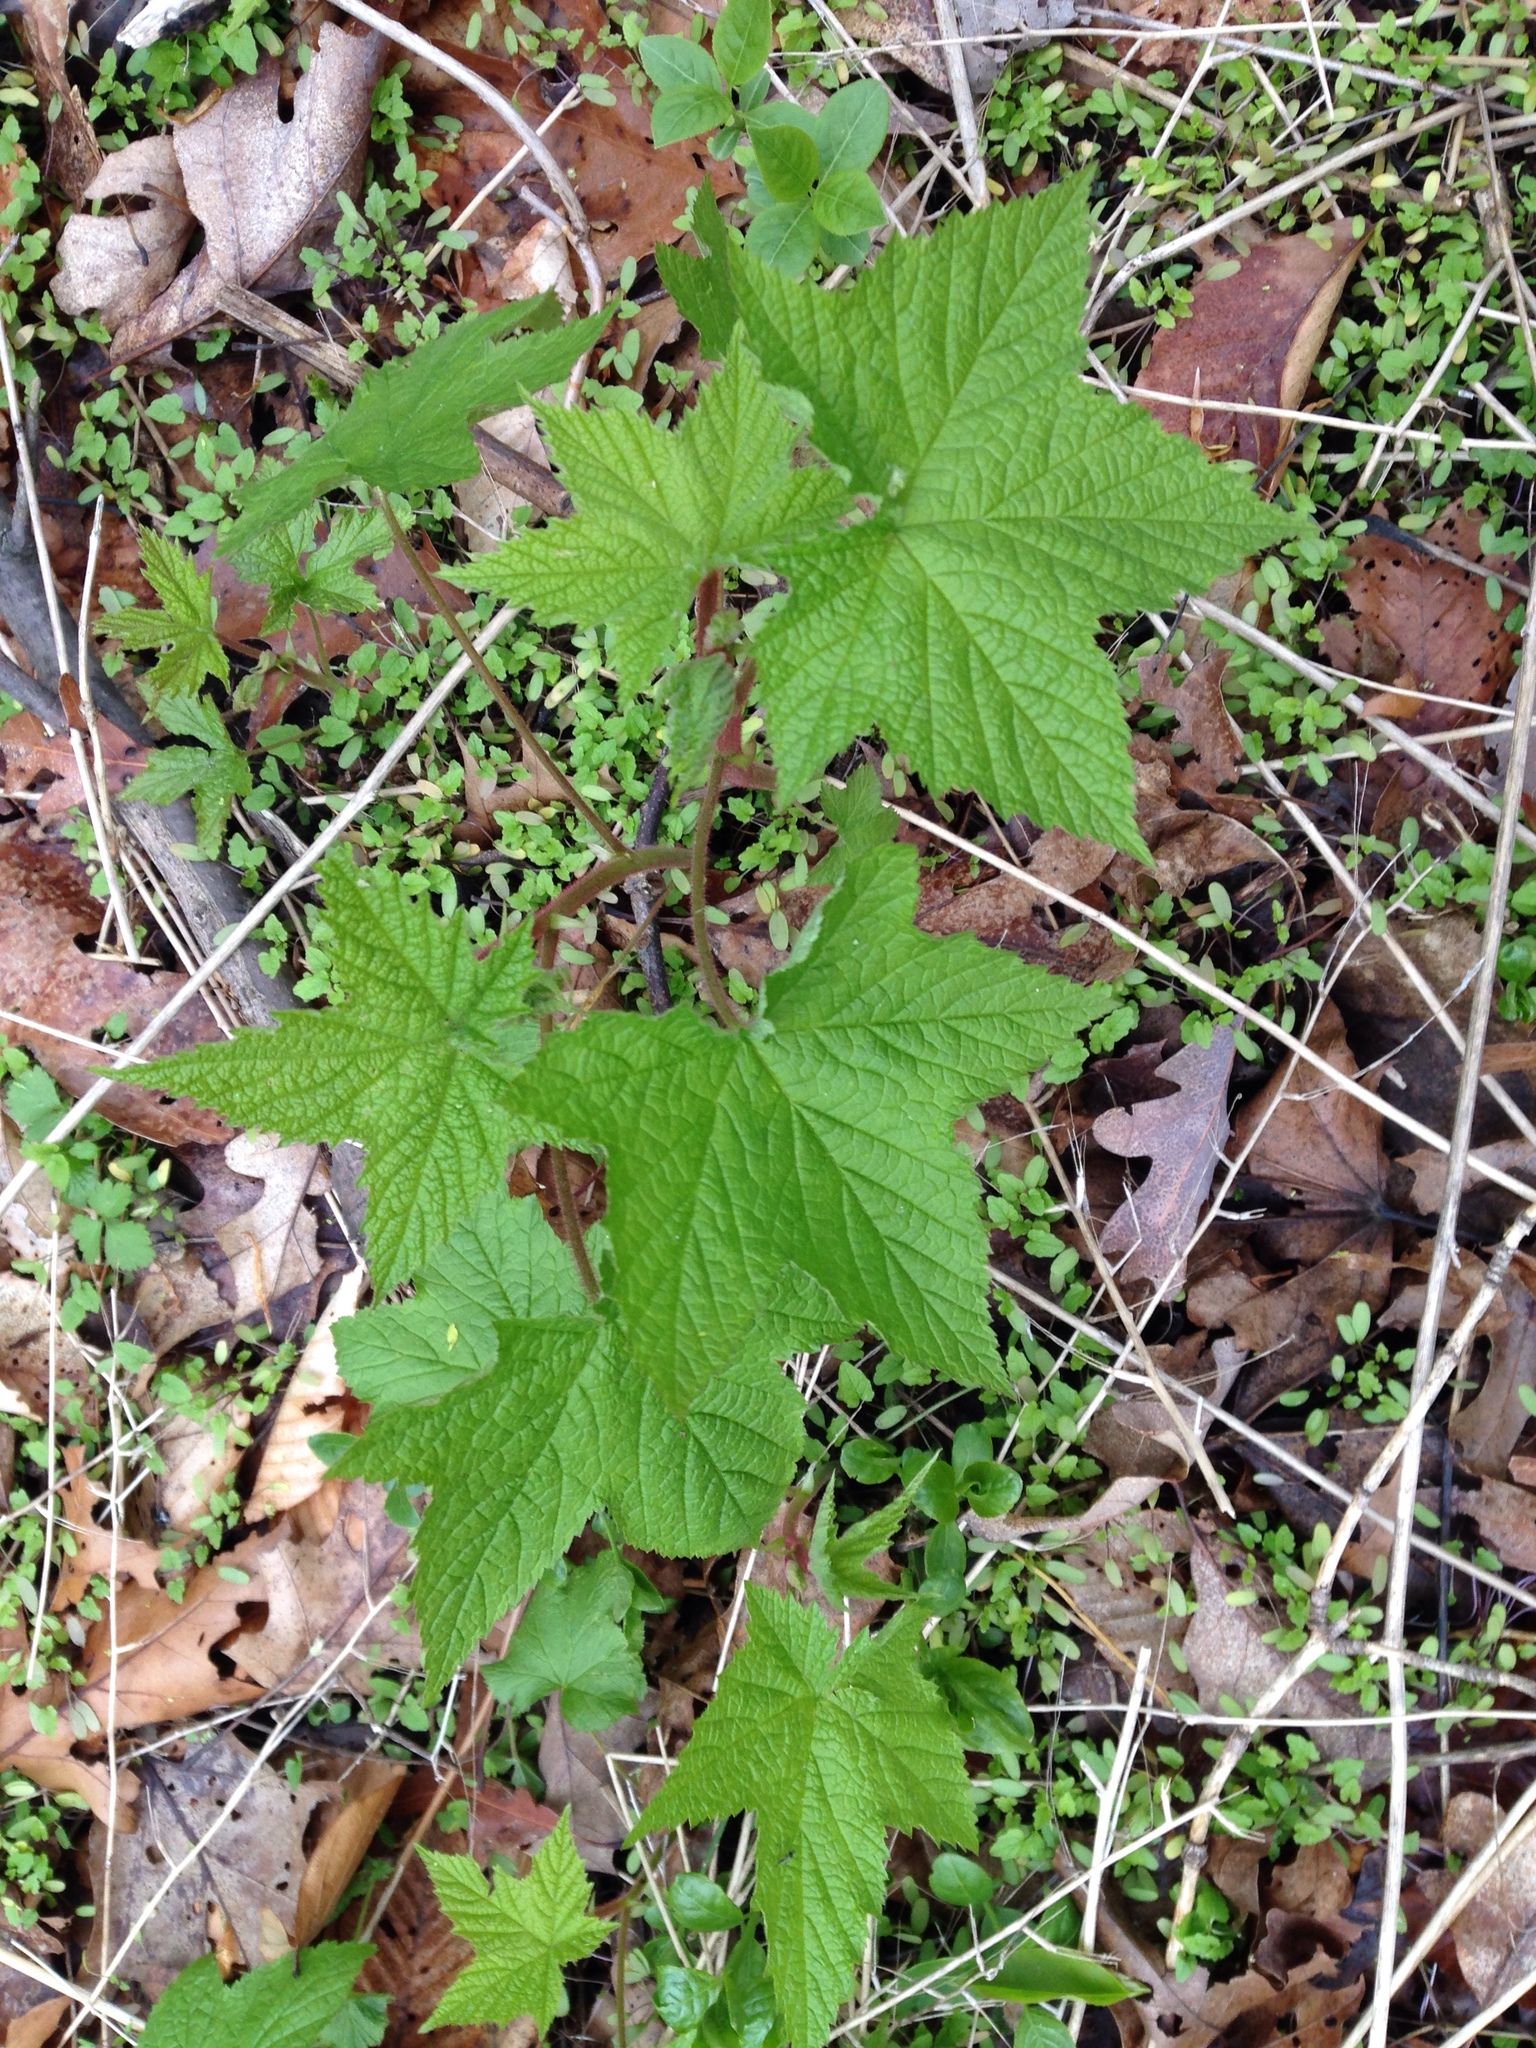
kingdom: Plantae
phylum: Tracheophyta
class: Magnoliopsida
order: Rosales
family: Rosaceae
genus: Rubus
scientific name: Rubus odoratus
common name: Purple-flowered raspberry
